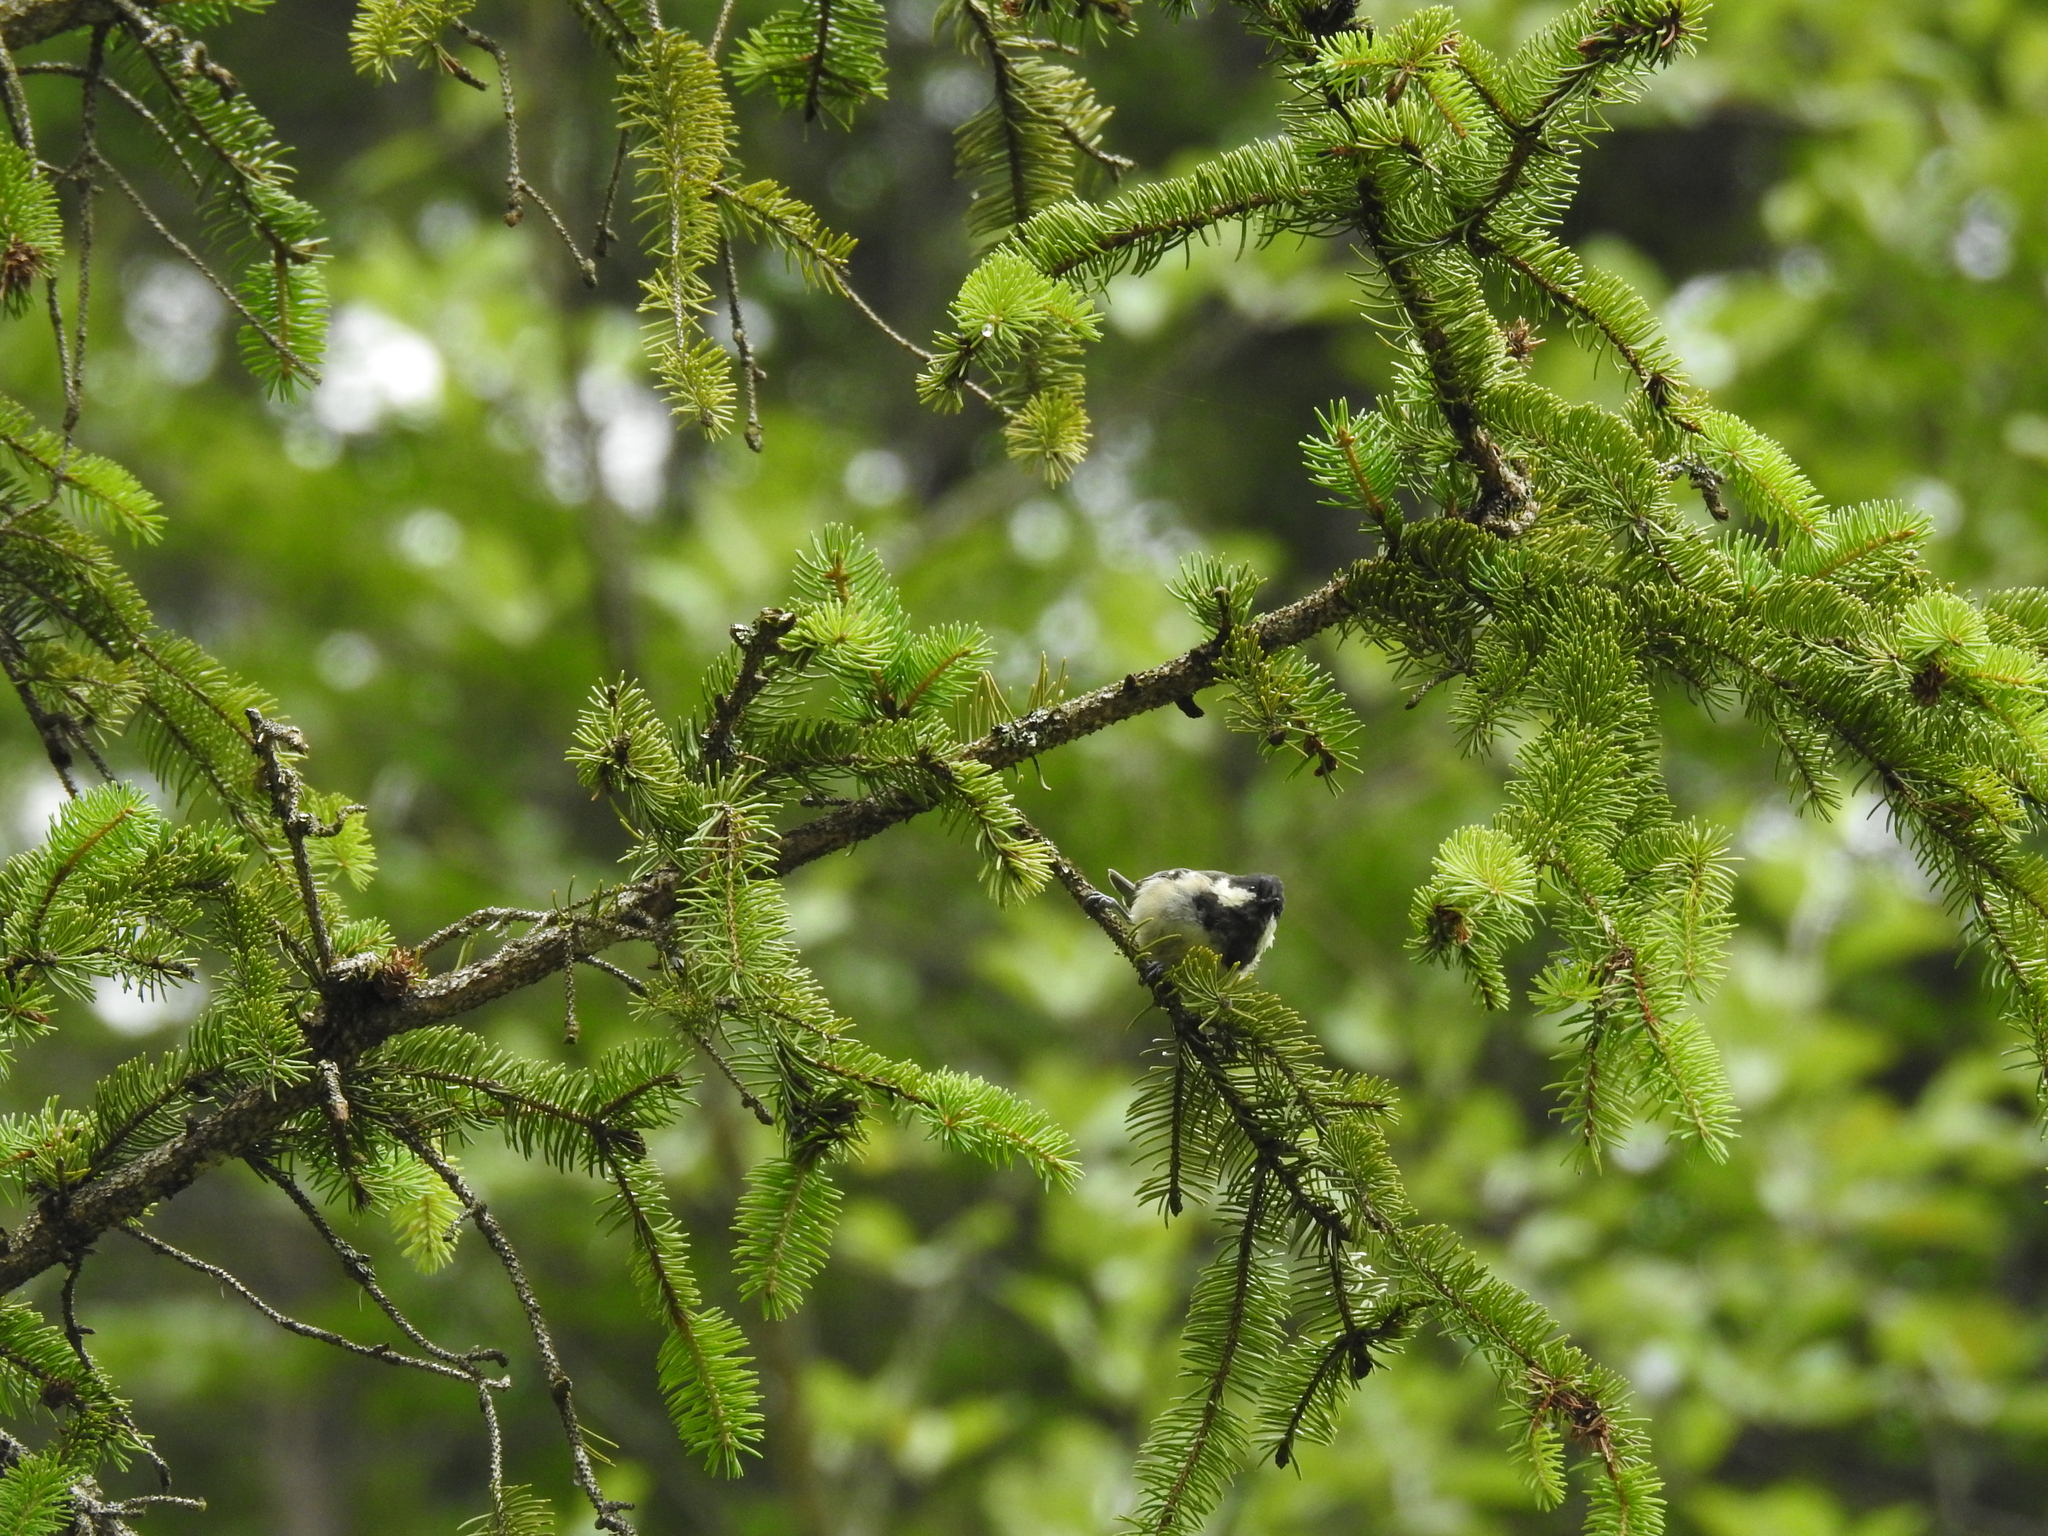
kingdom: Animalia
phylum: Chordata
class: Aves
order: Passeriformes
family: Paridae
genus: Periparus
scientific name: Periparus ater
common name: Coal tit
